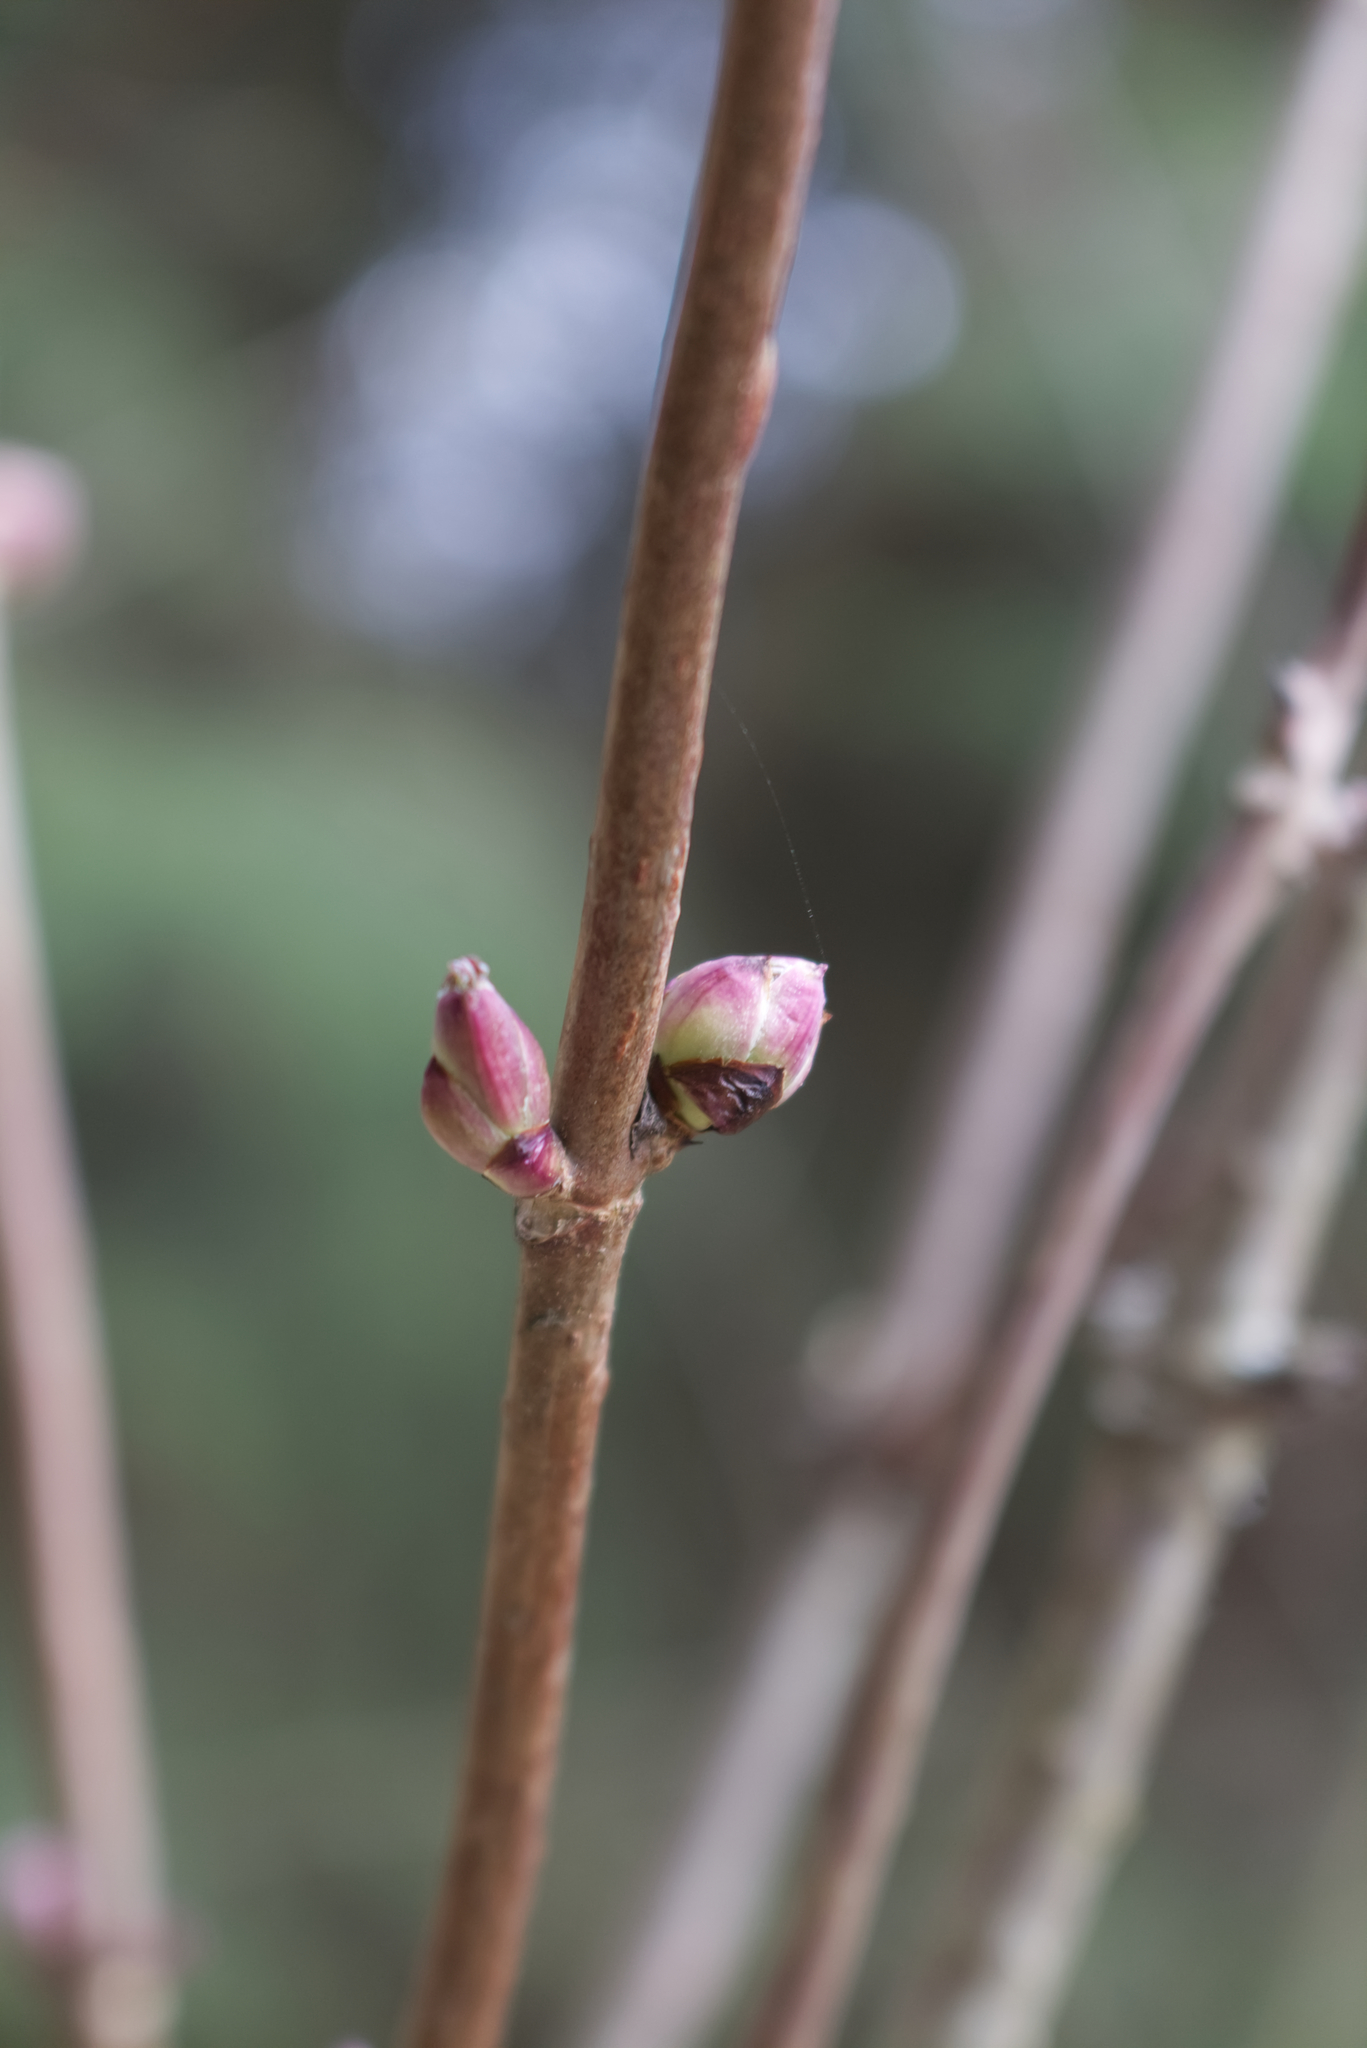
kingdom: Plantae
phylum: Tracheophyta
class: Magnoliopsida
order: Dipsacales
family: Viburnaceae
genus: Sambucus
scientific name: Sambucus racemosa
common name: Red-berried elder
